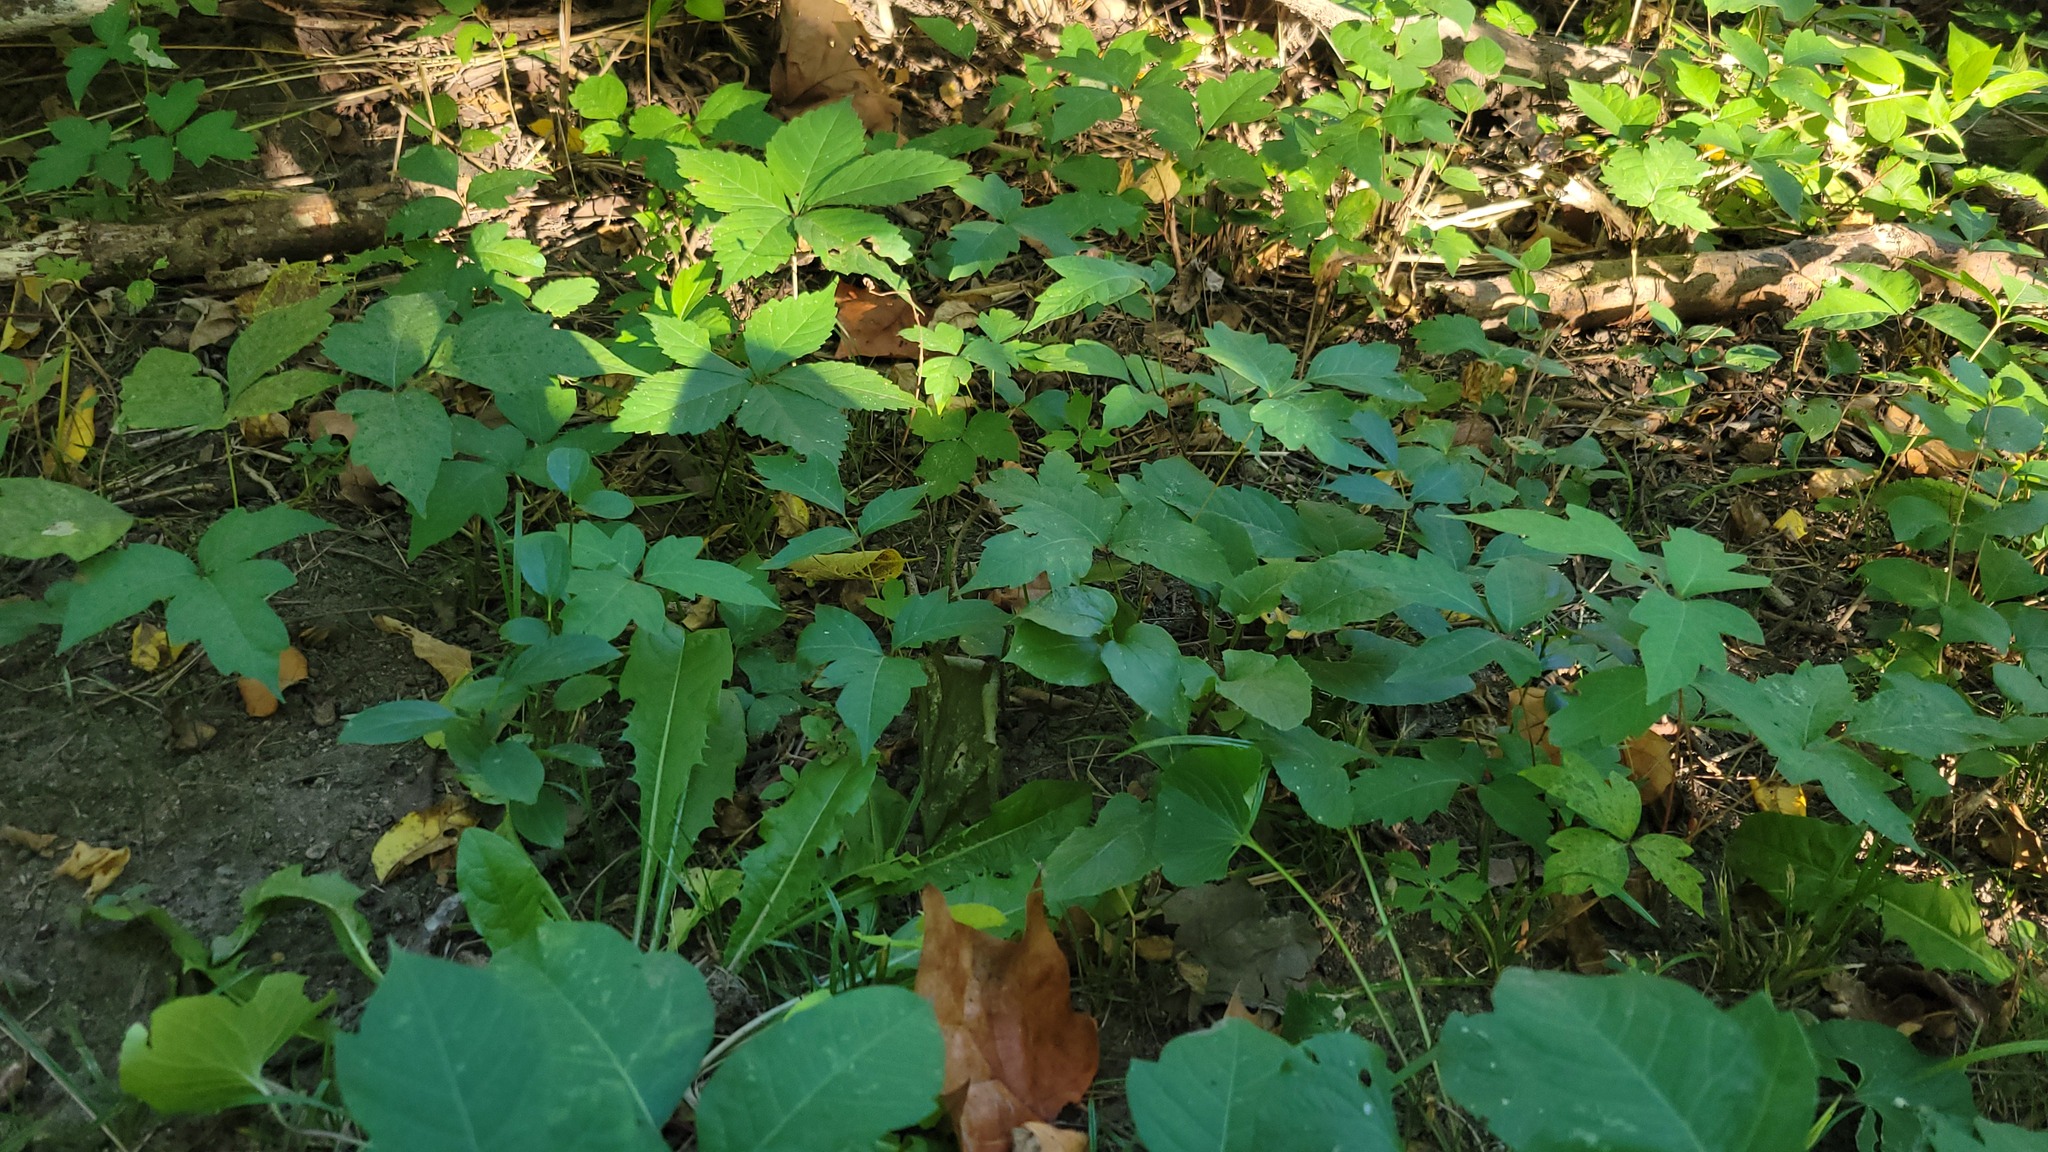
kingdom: Plantae
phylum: Tracheophyta
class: Magnoliopsida
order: Sapindales
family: Anacardiaceae
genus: Toxicodendron
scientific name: Toxicodendron radicans
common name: Poison ivy
